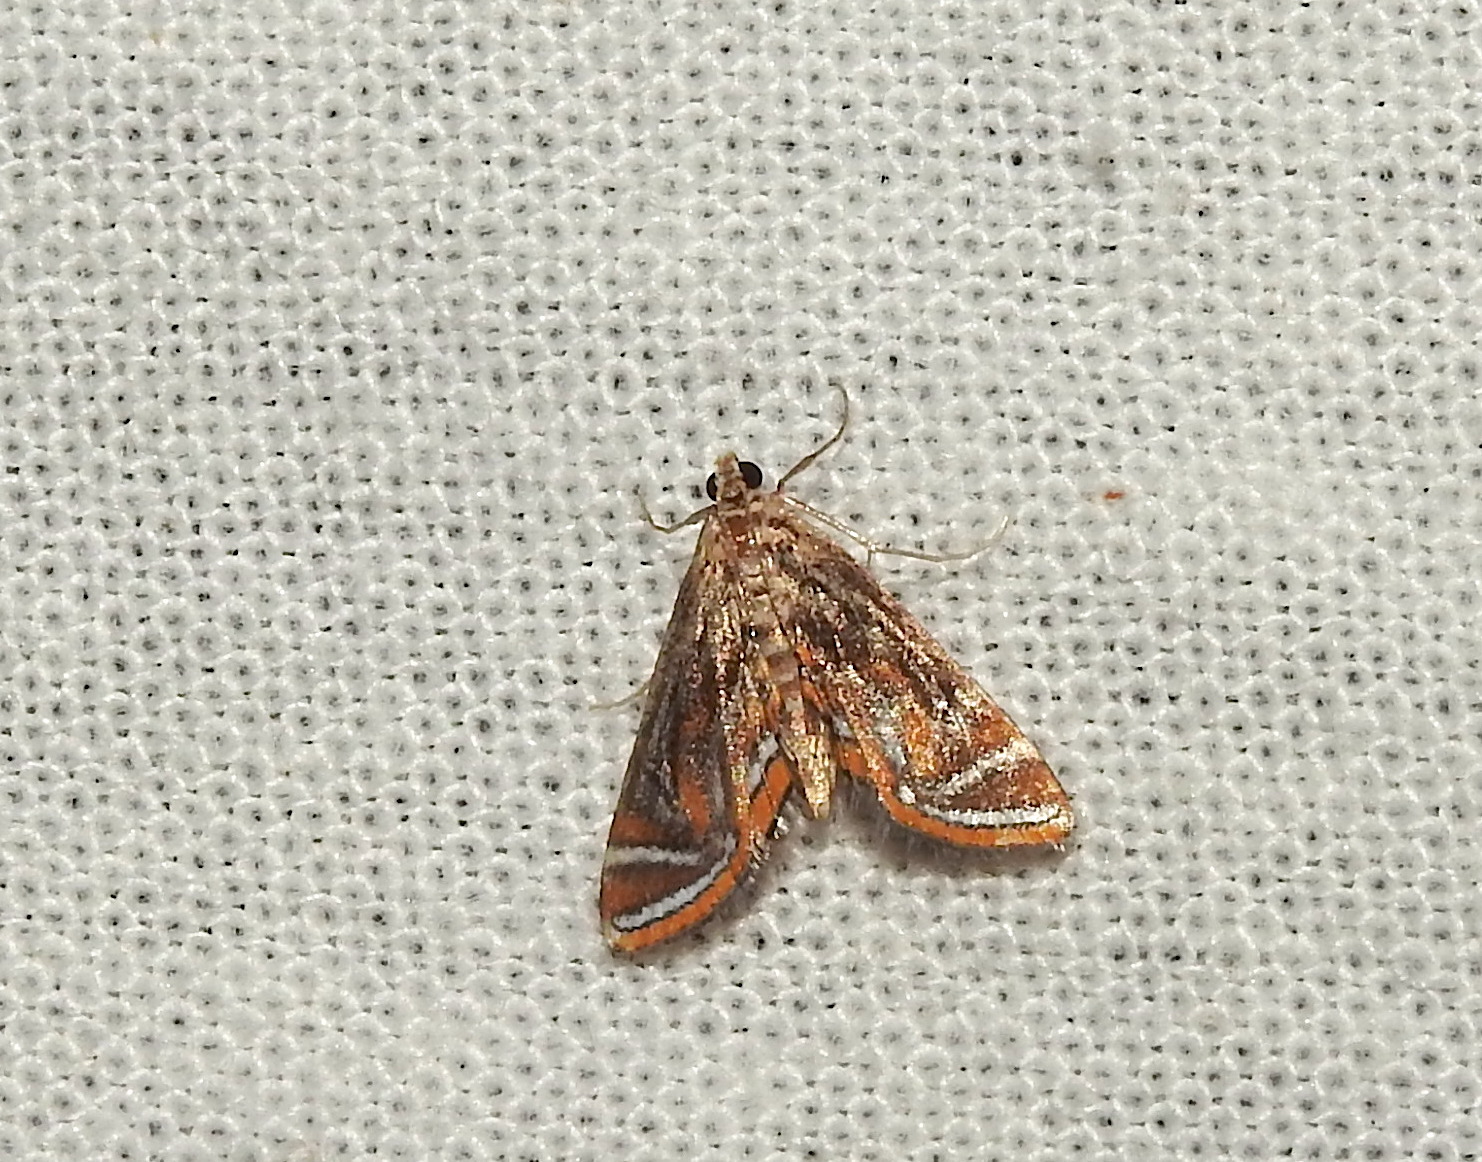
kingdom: Animalia
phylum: Arthropoda
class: Insecta
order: Lepidoptera
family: Crambidae
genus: Parapoynx
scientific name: Parapoynx bilinealis
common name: Streaked china-mark
